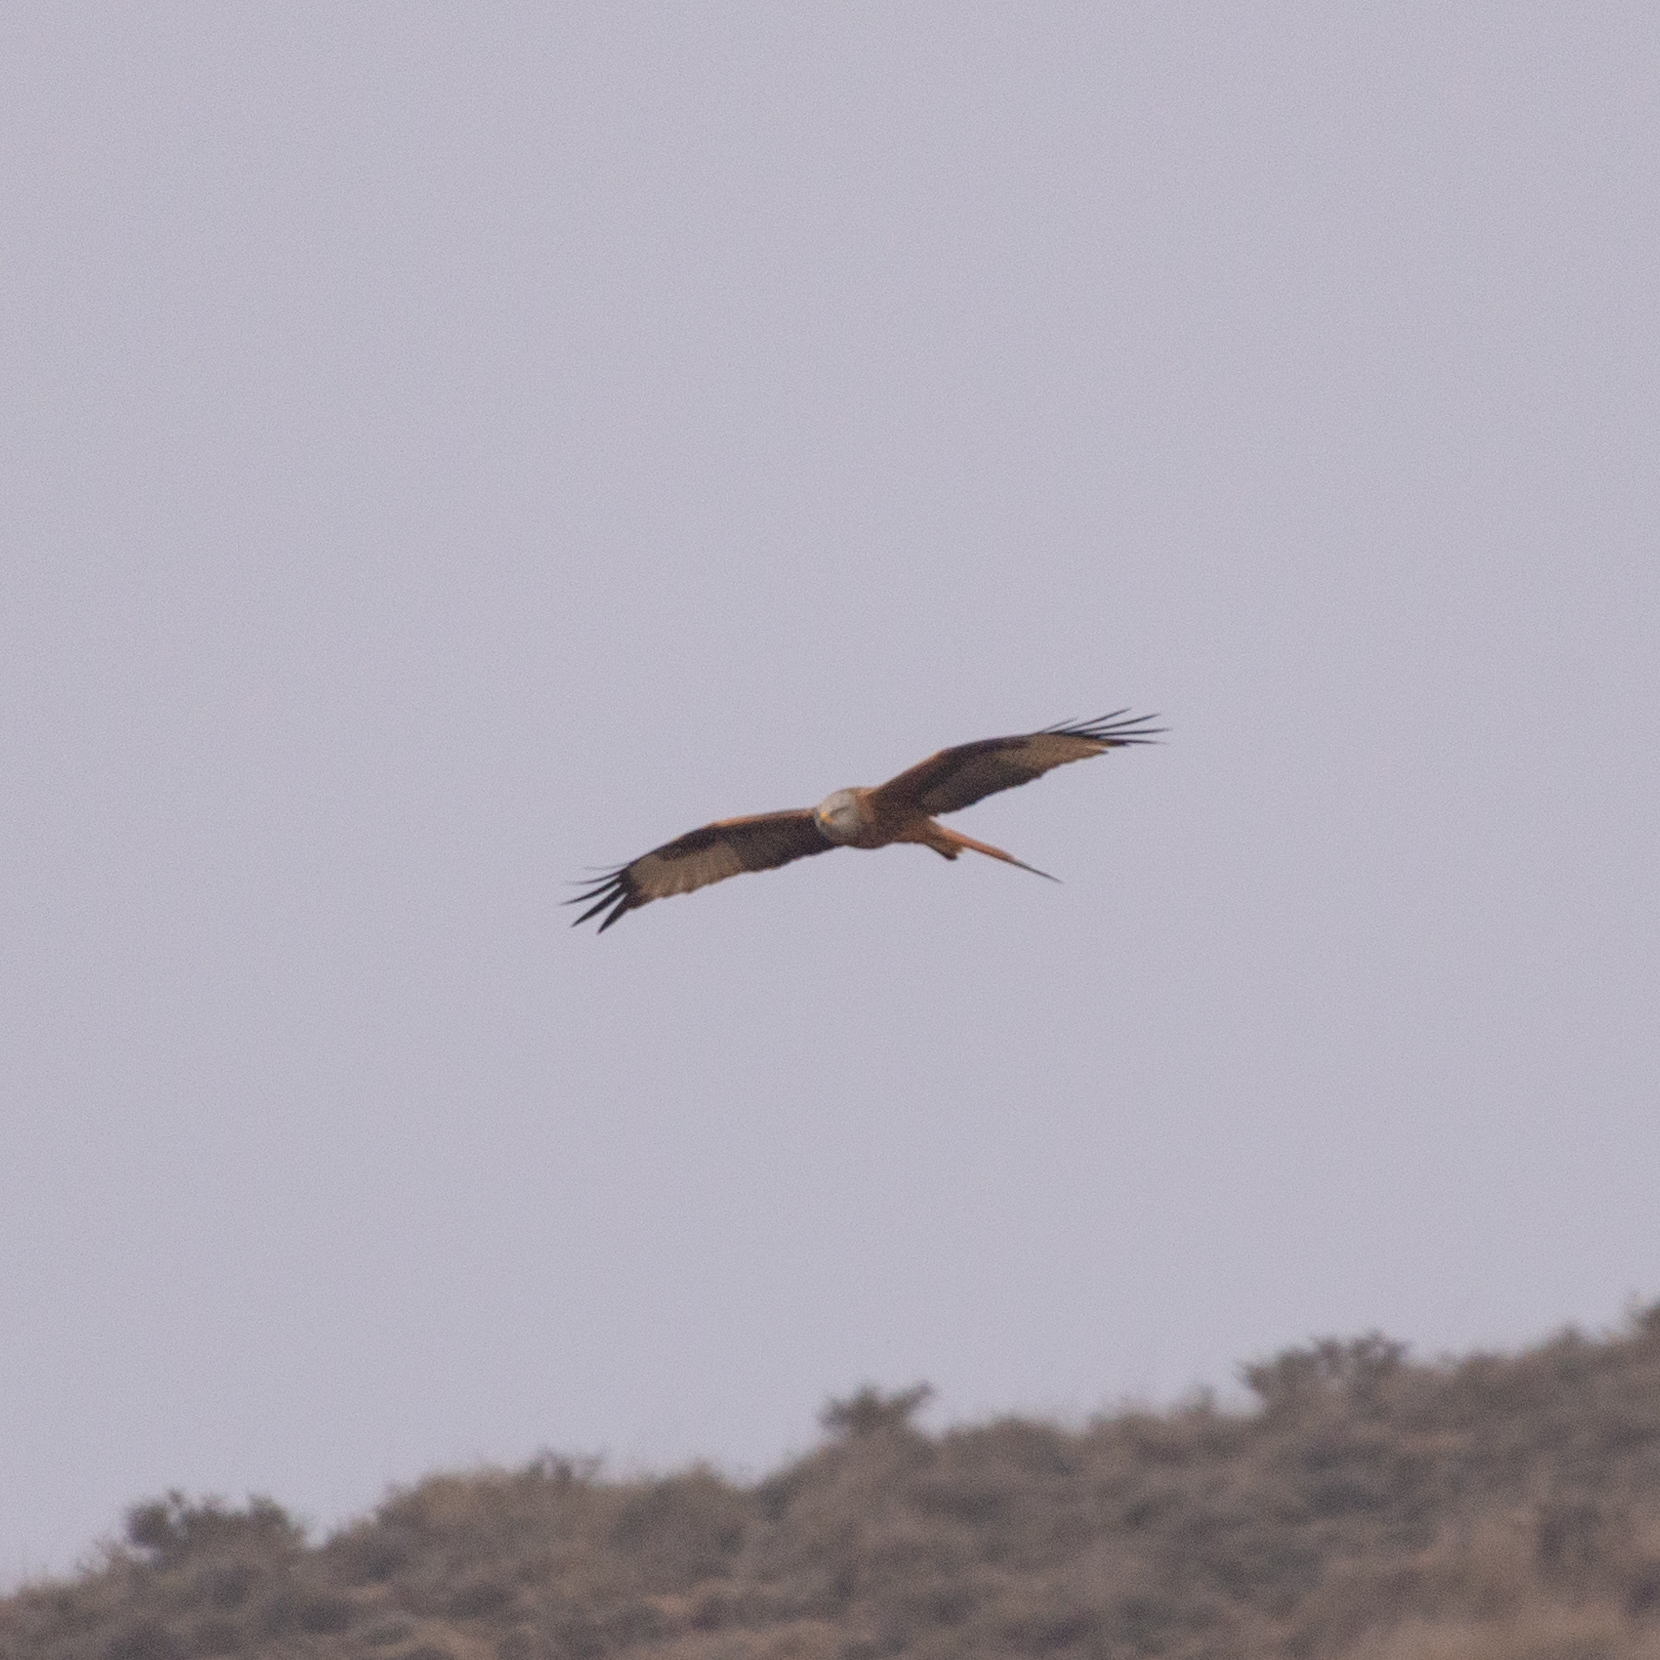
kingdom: Animalia
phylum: Chordata
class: Aves
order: Accipitriformes
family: Accipitridae
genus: Milvus
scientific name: Milvus milvus
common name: Red kite
